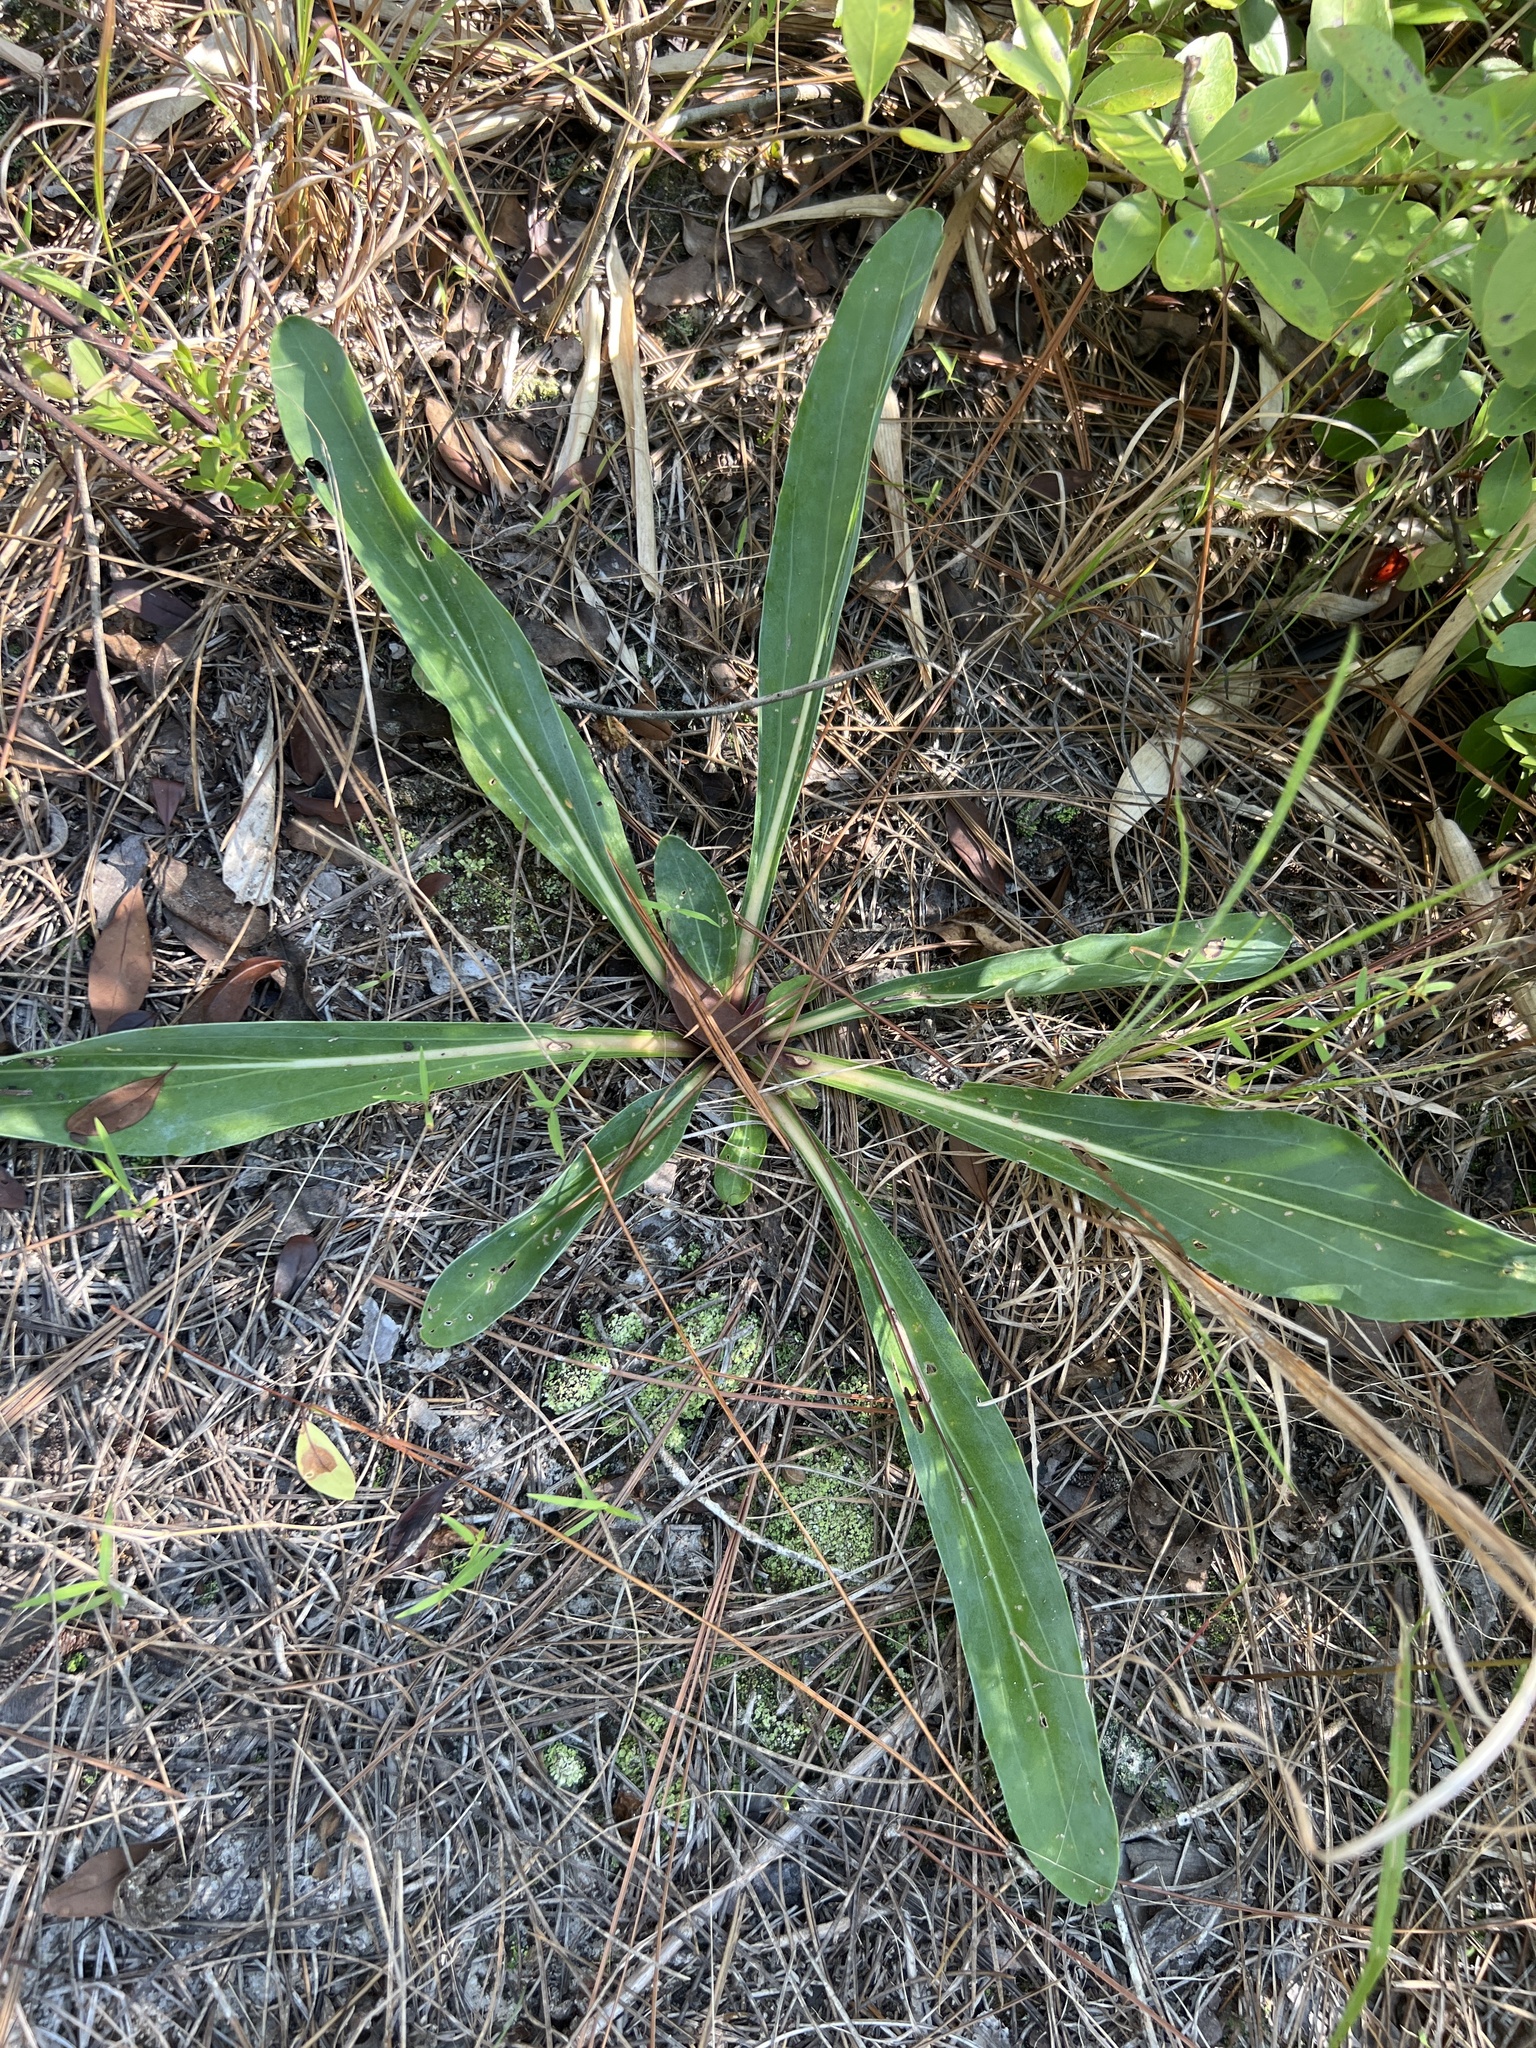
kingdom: Plantae
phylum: Tracheophyta
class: Magnoliopsida
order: Asterales
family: Asteraceae
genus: Carphephorus
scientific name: Carphephorus odoratissimus
